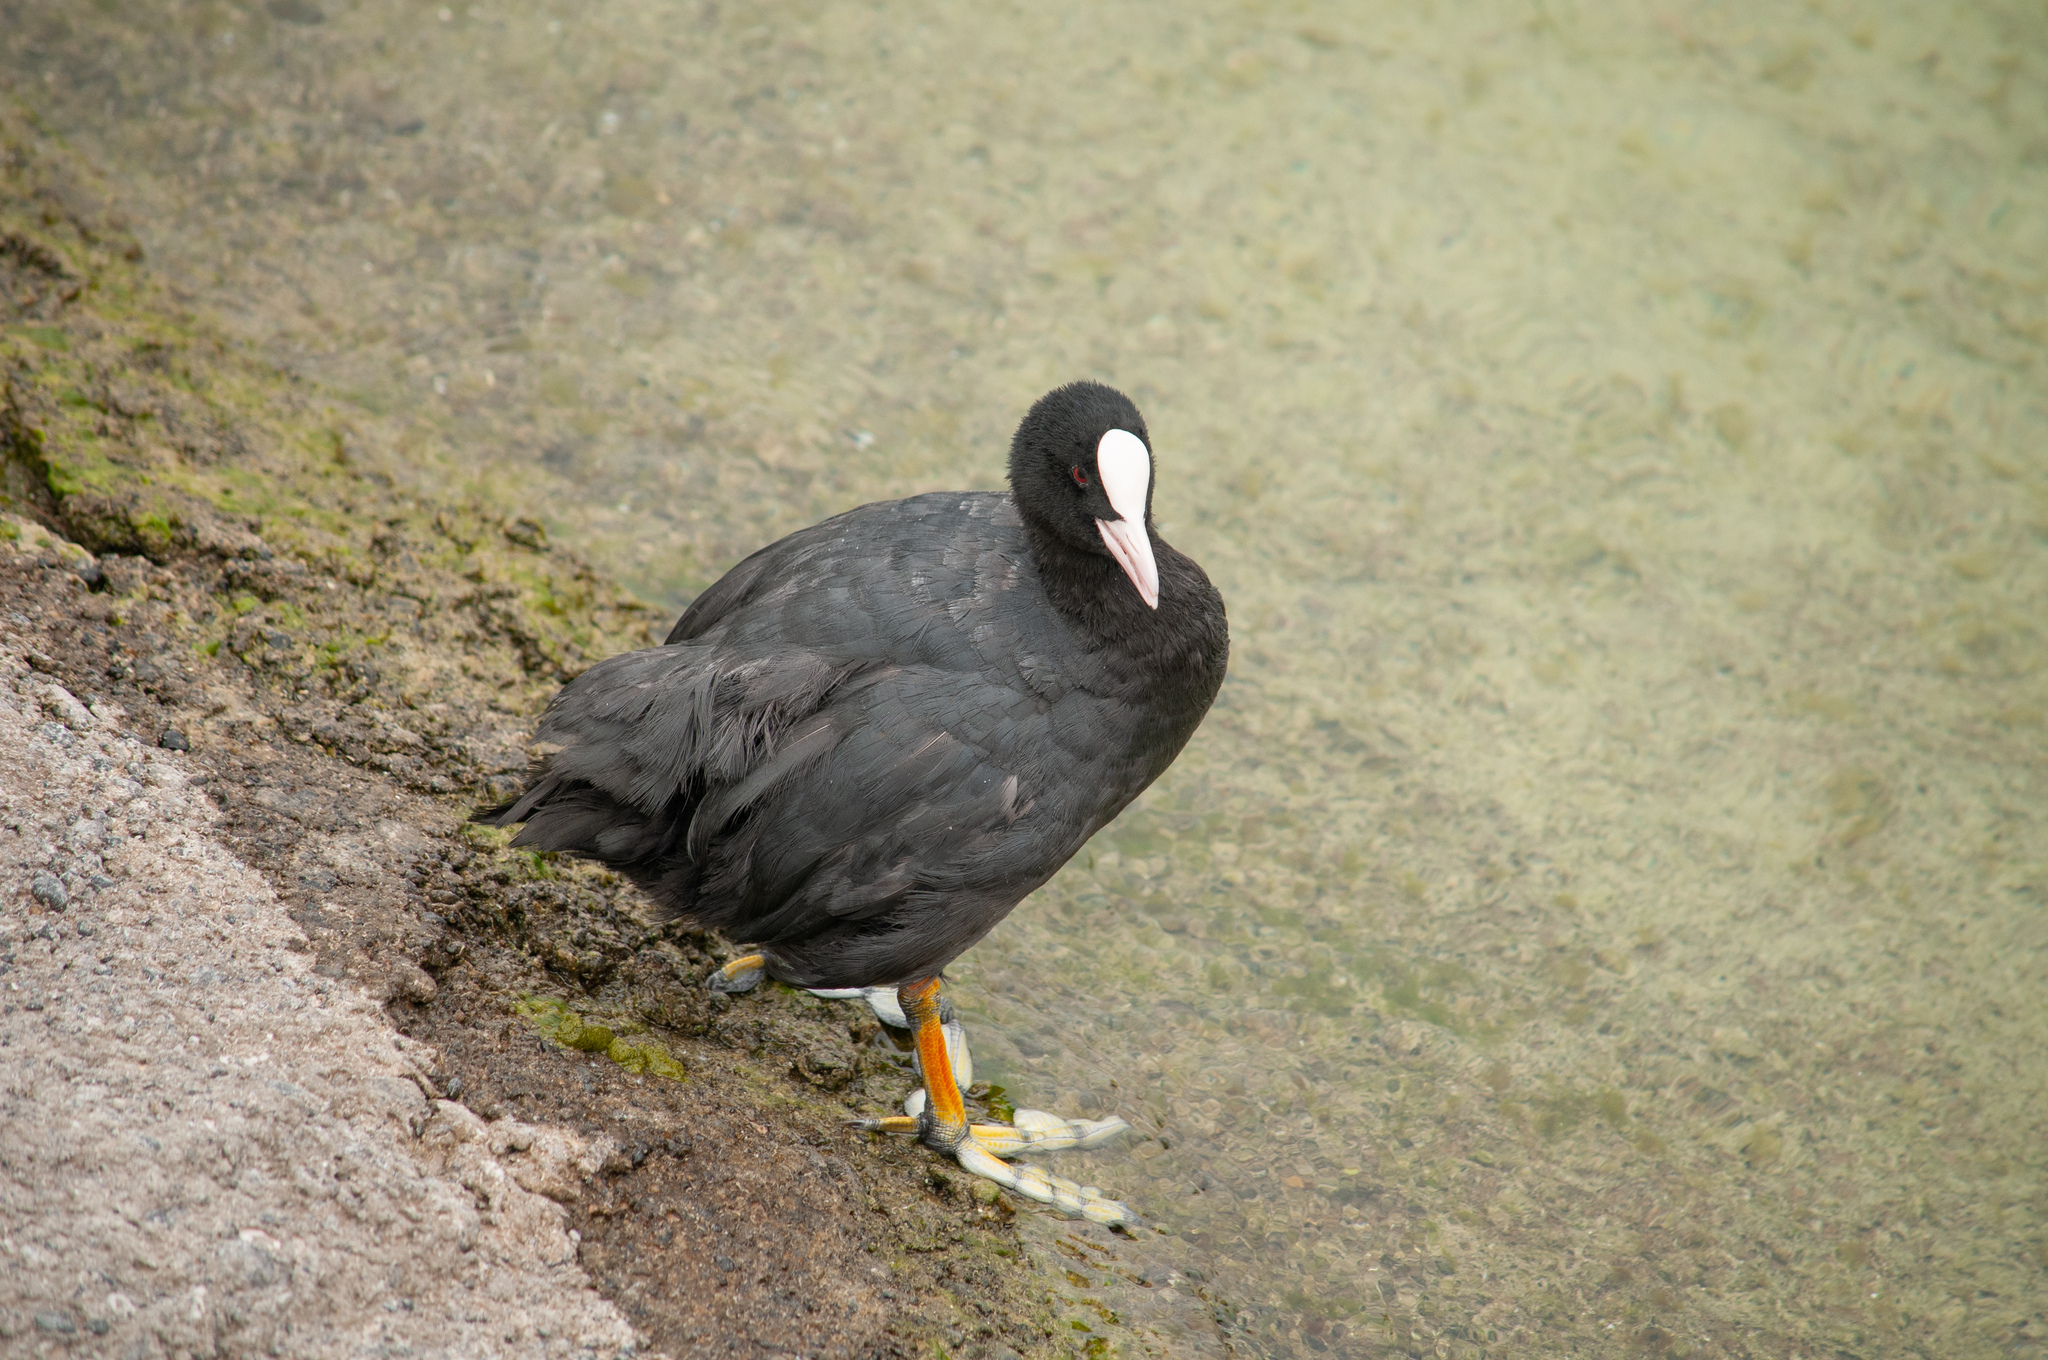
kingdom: Animalia
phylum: Chordata
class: Aves
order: Gruiformes
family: Rallidae
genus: Fulica
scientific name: Fulica atra
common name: Eurasian coot
